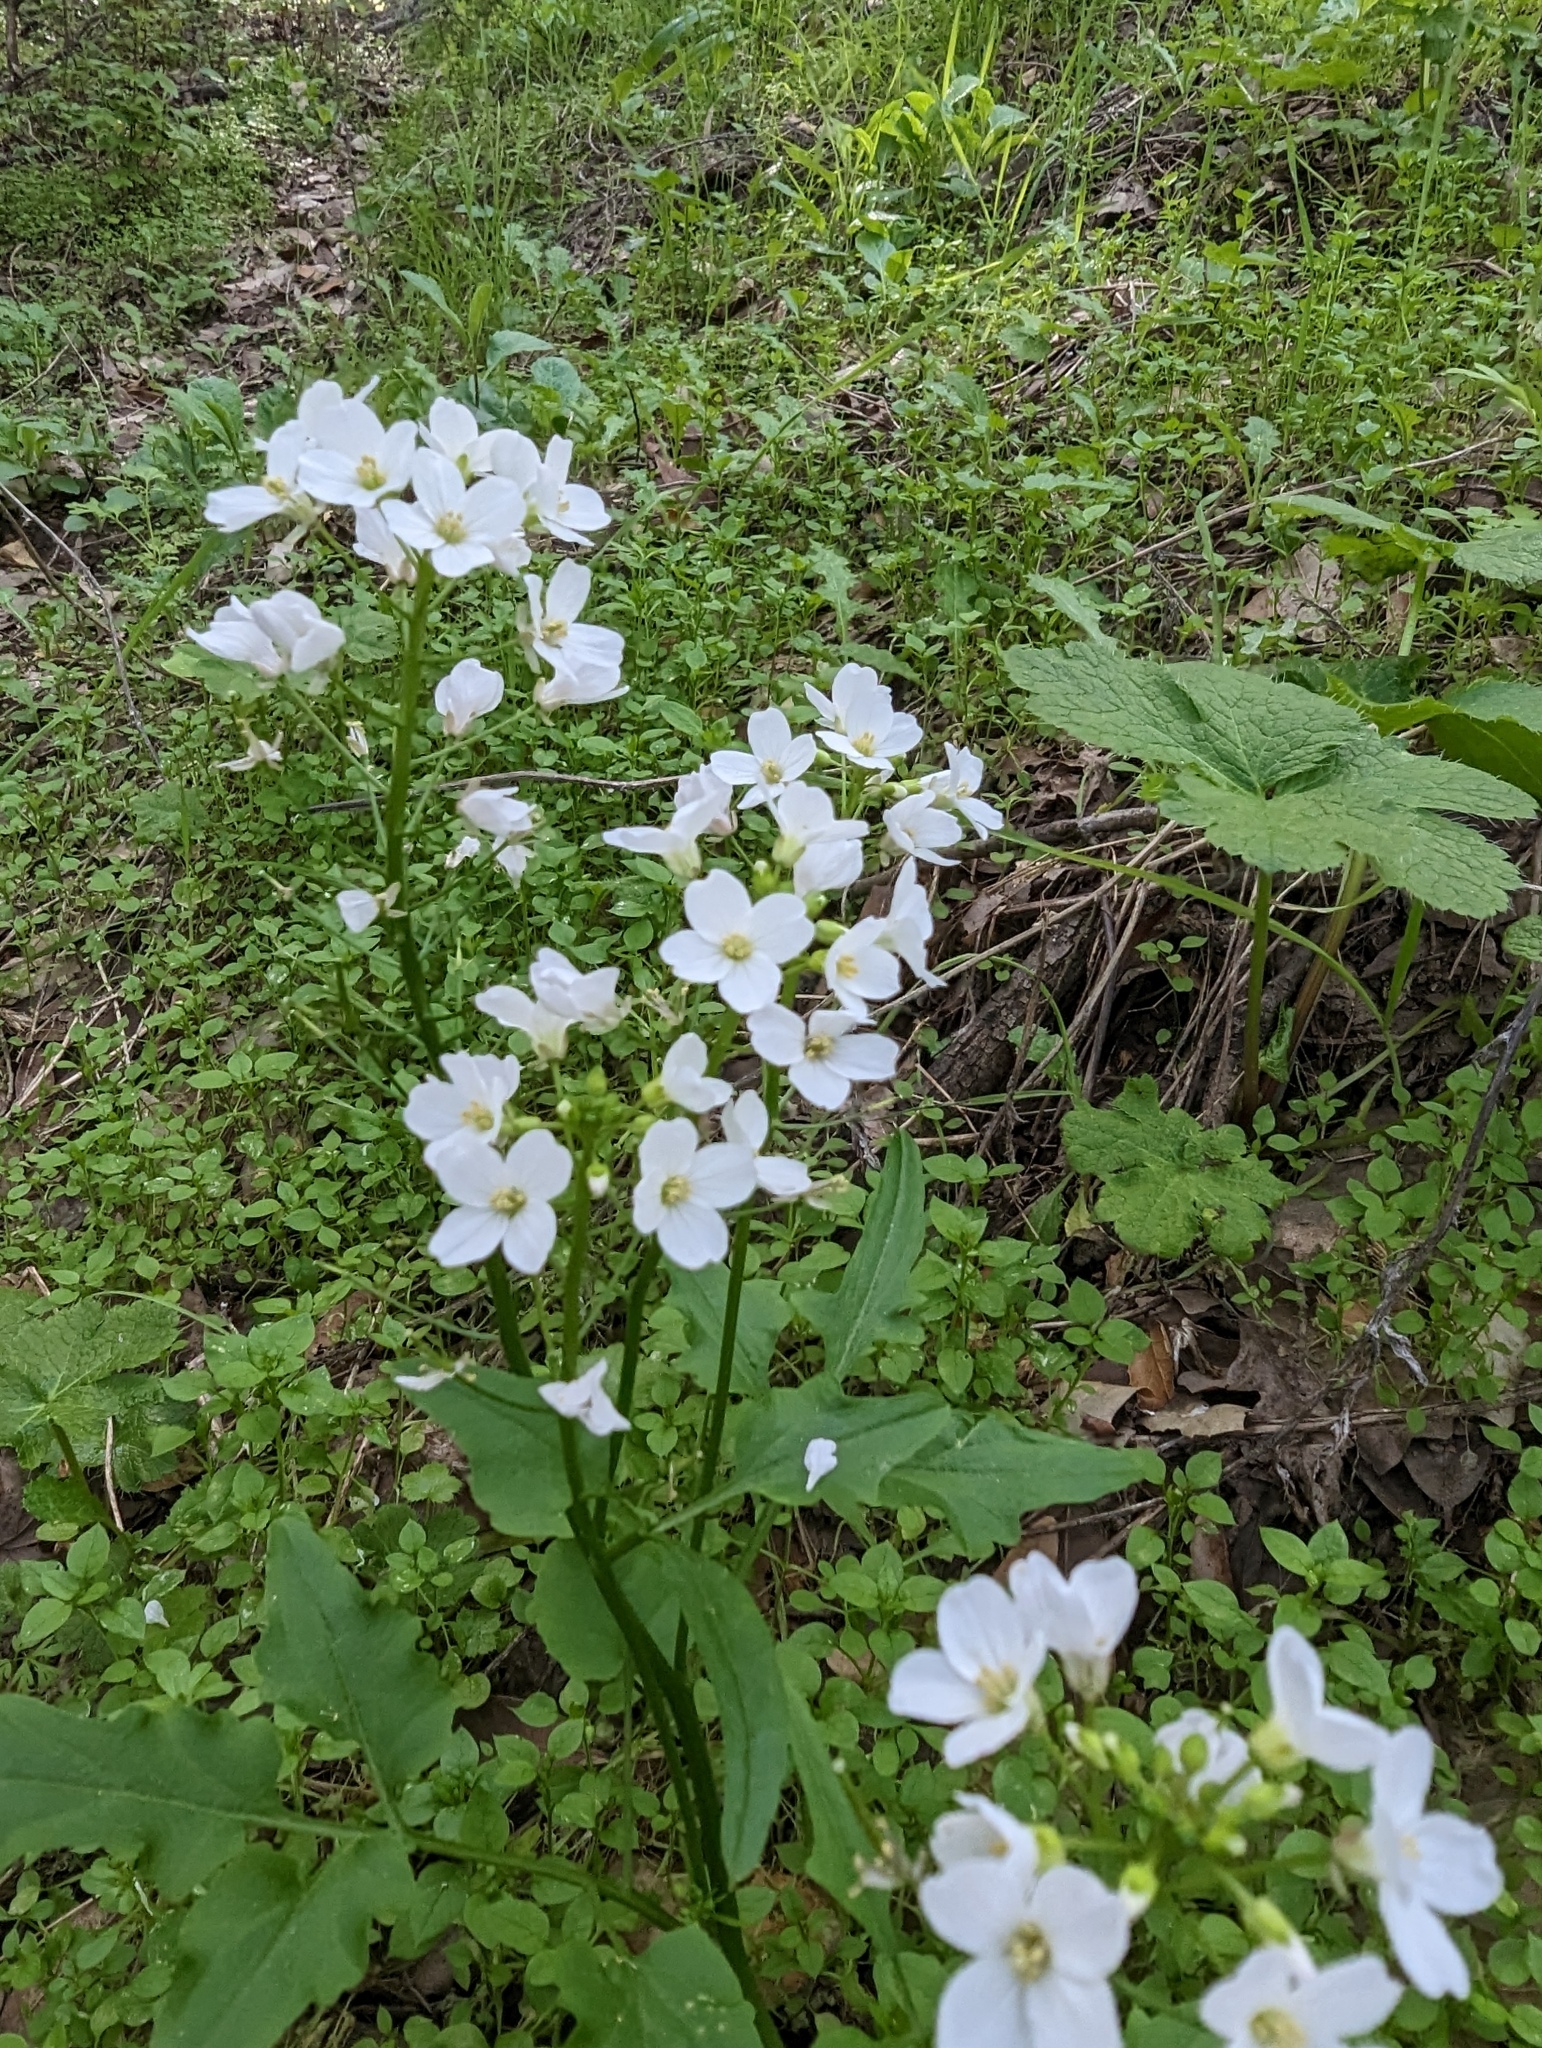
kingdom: Plantae
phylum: Tracheophyta
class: Magnoliopsida
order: Brassicales
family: Brassicaceae
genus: Cardamine
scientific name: Cardamine californica
